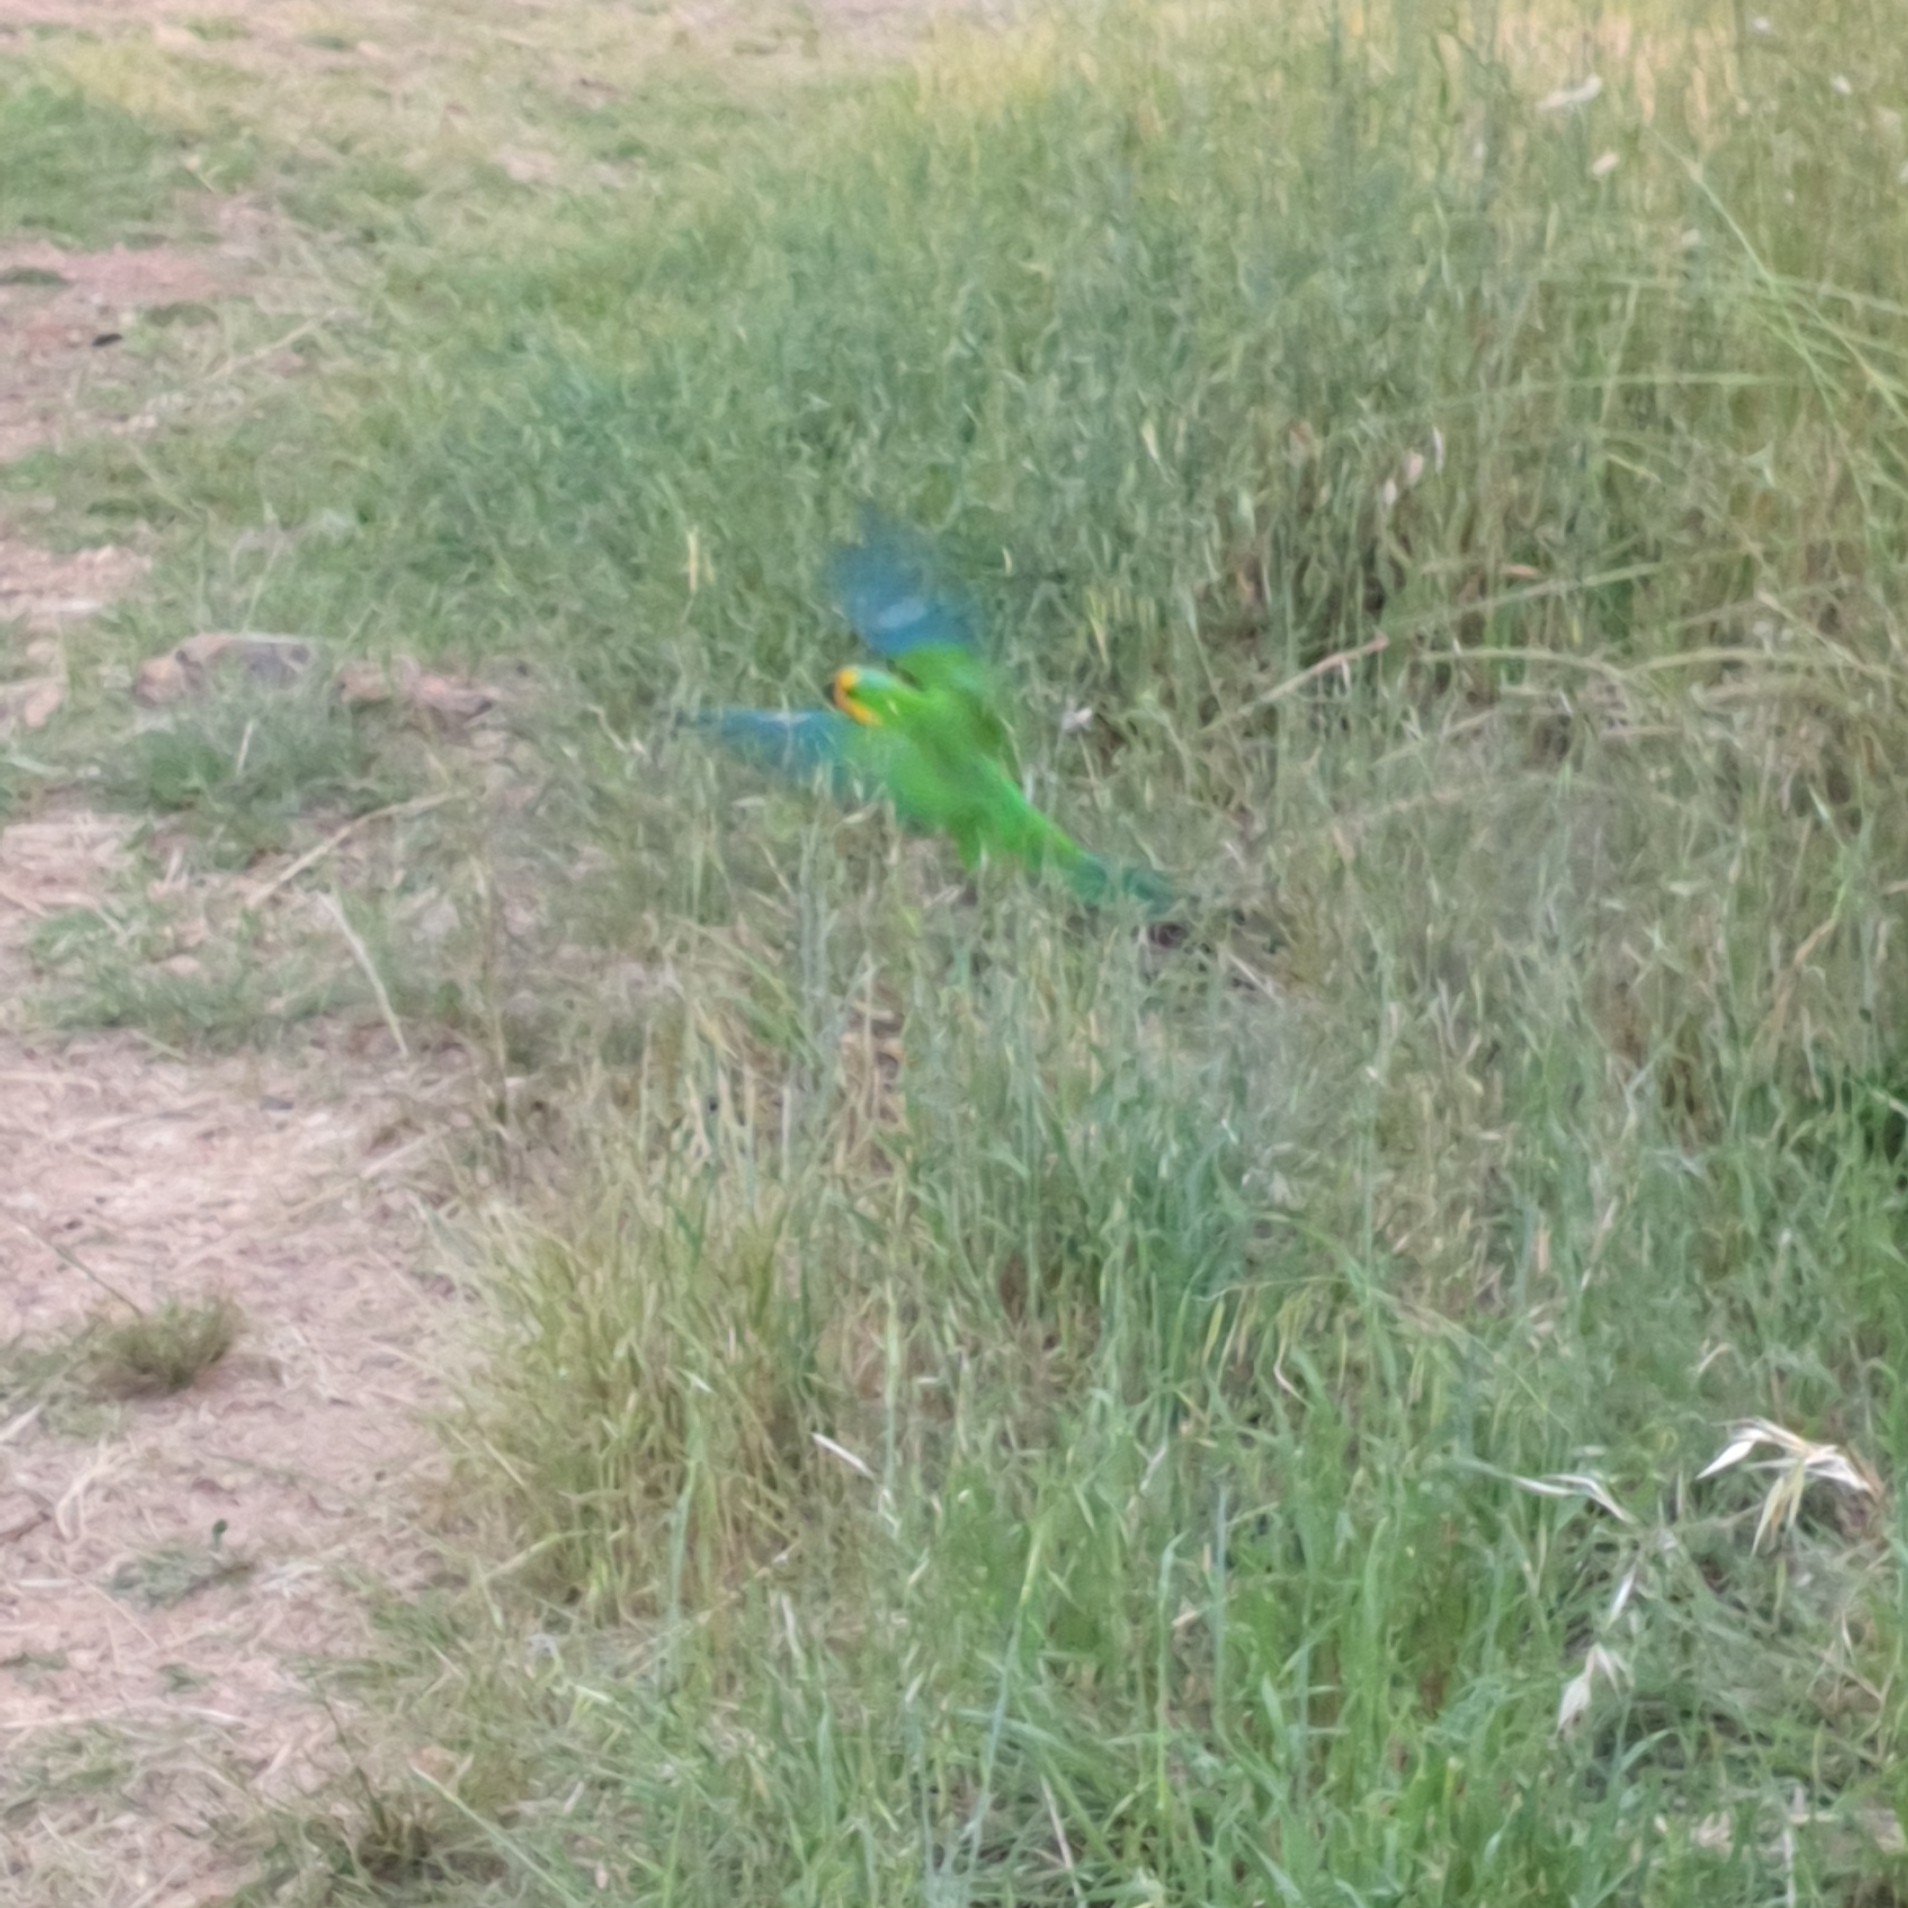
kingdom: Animalia
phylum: Chordata
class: Aves
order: Psittaciformes
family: Psittacidae
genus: Polytelis
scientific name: Polytelis swainsonii
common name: Superb parrot
